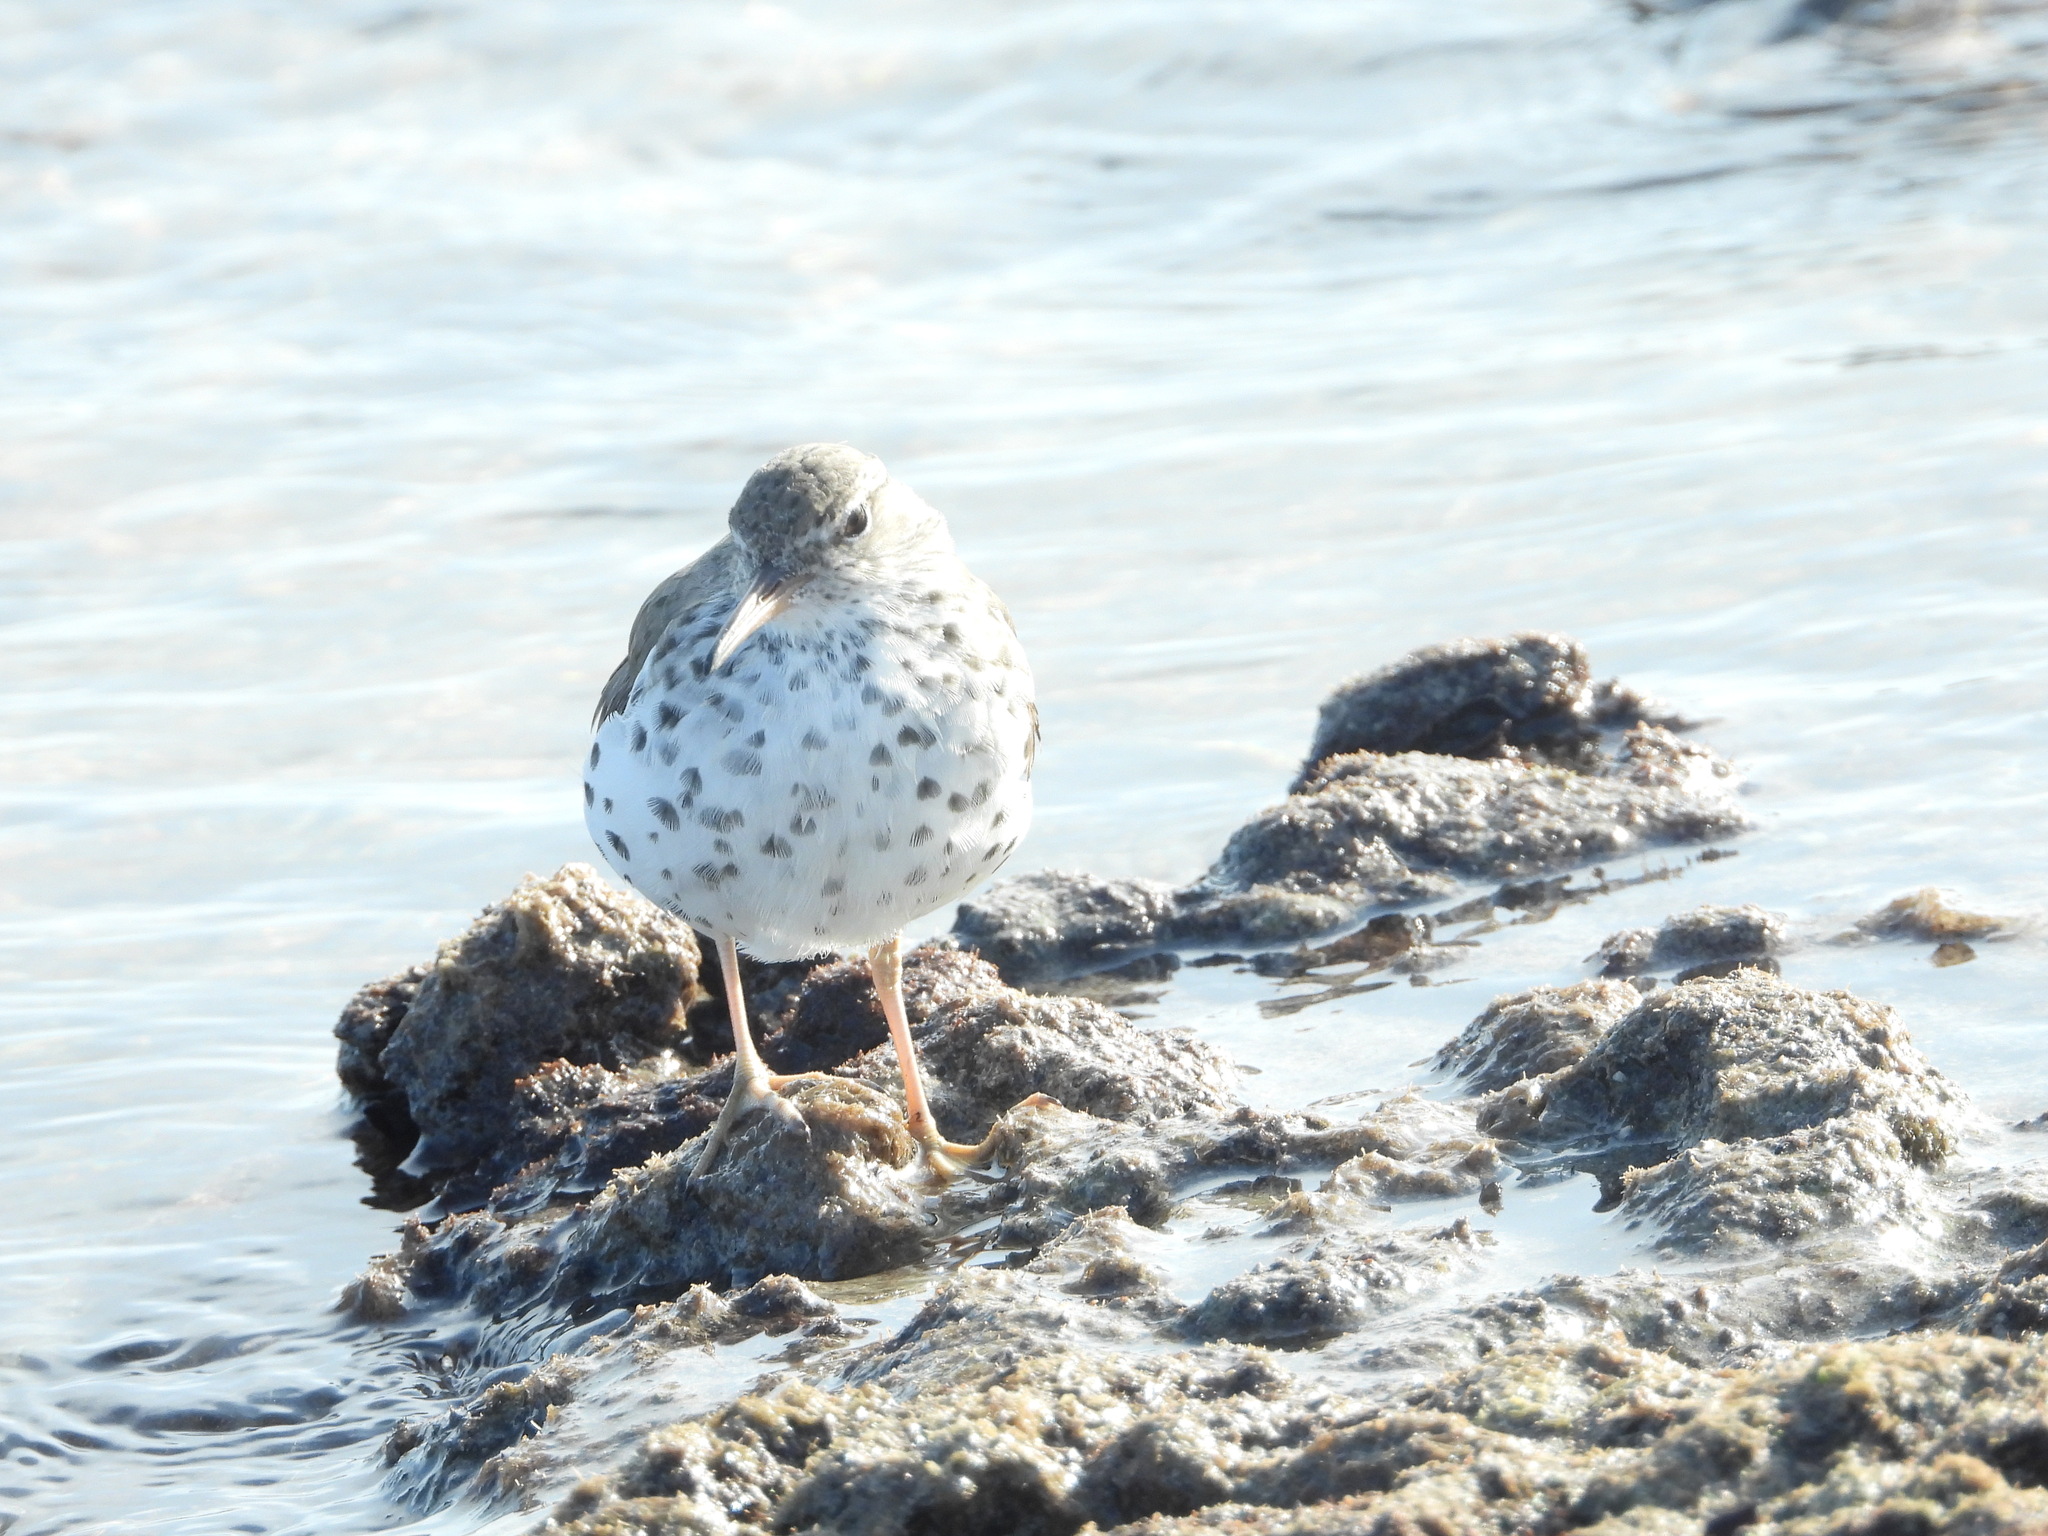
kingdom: Animalia
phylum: Chordata
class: Aves
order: Charadriiformes
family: Scolopacidae
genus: Actitis
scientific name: Actitis macularius
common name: Spotted sandpiper
